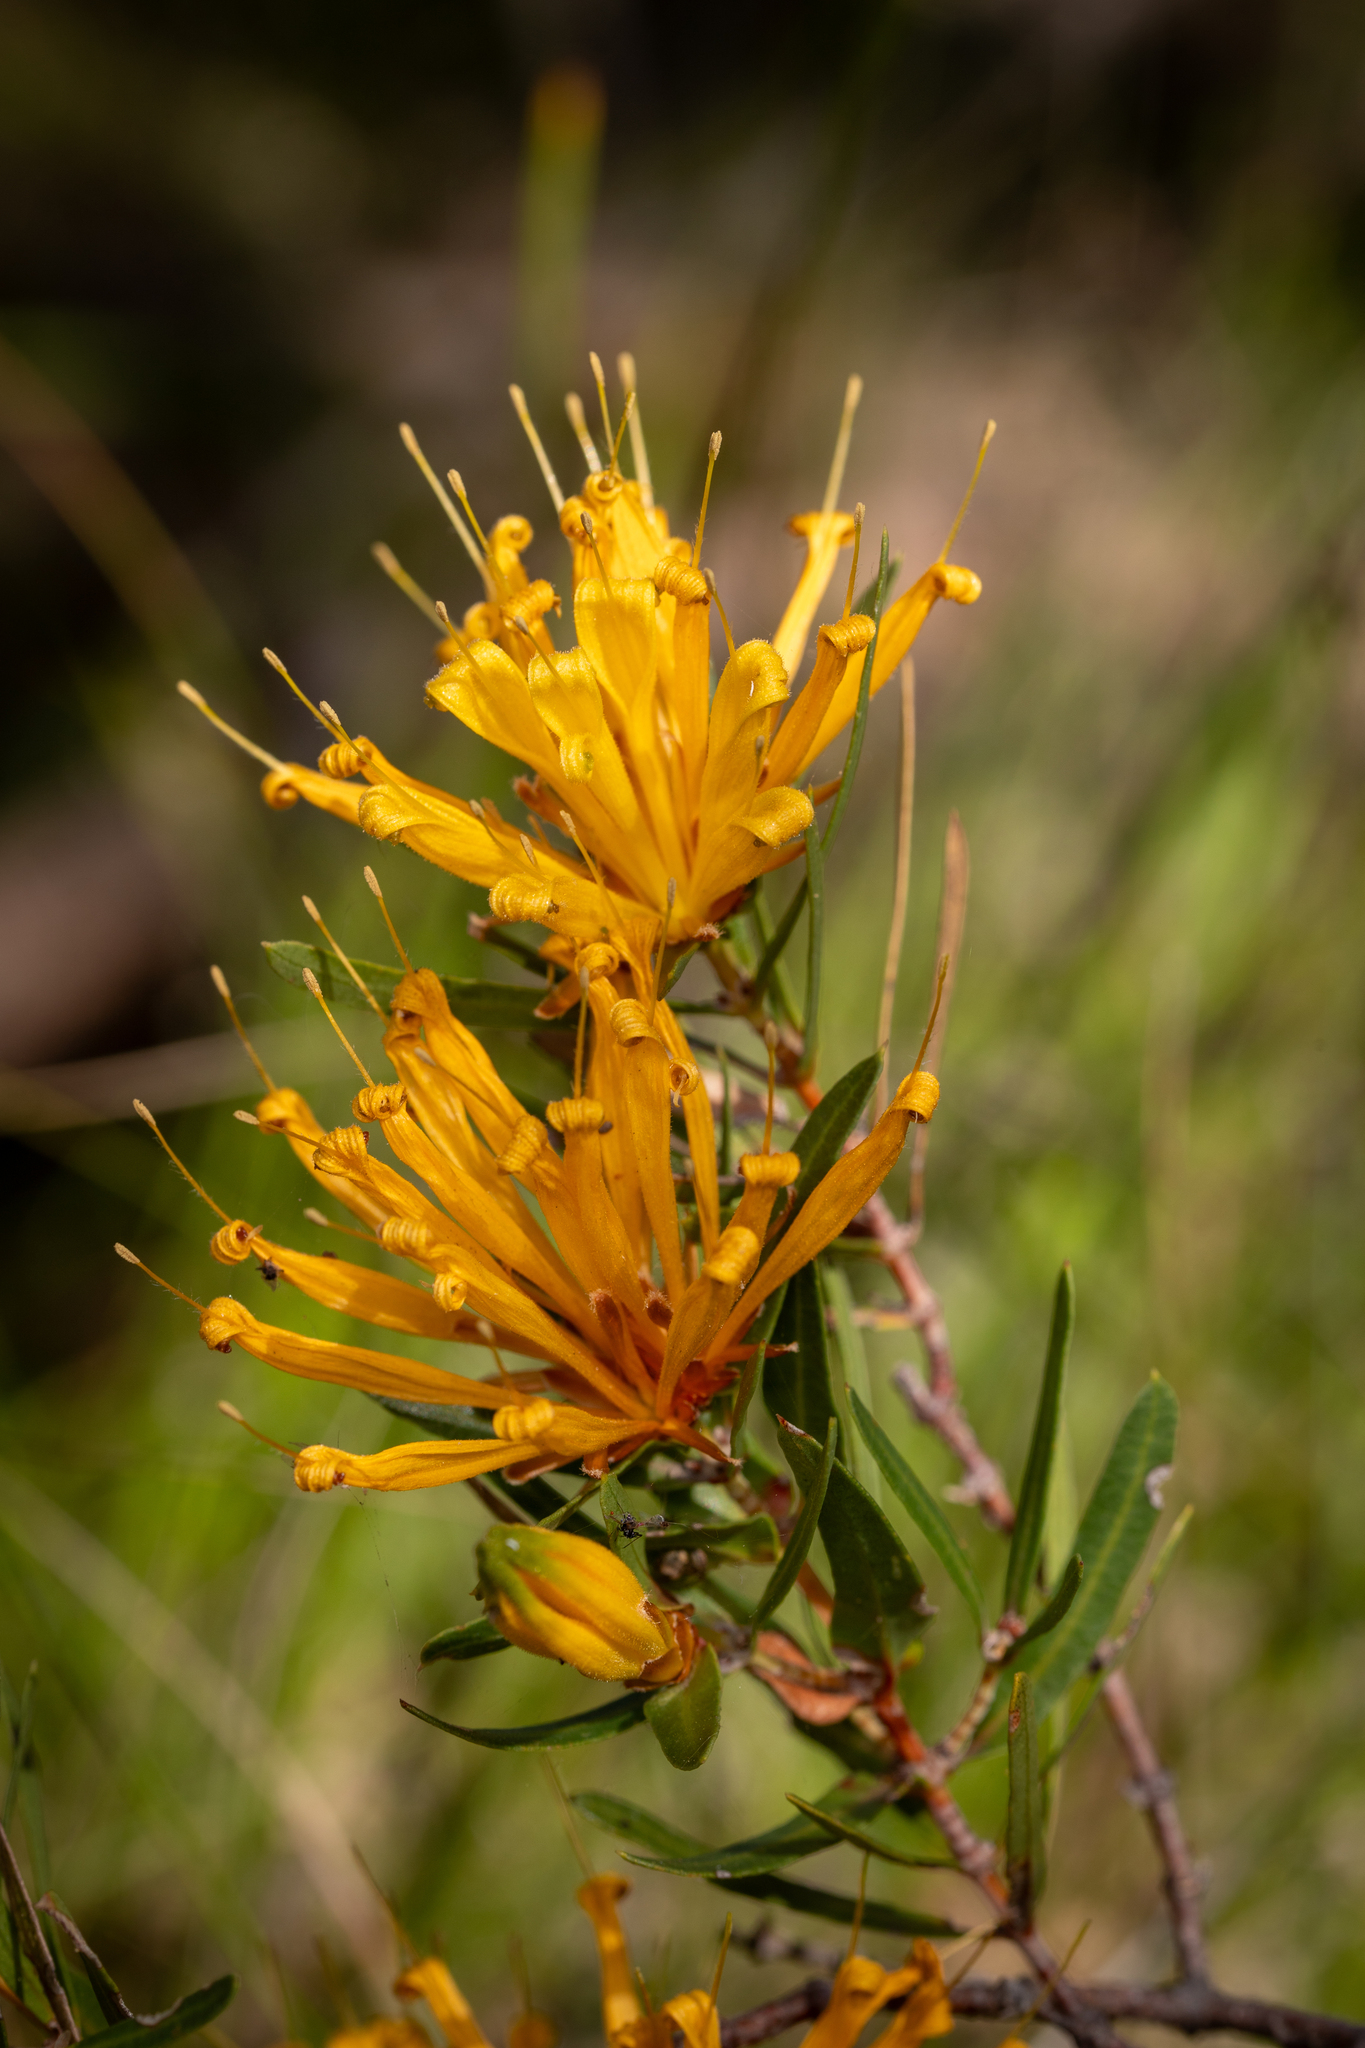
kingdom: Plantae
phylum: Tracheophyta
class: Magnoliopsida
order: Proteales
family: Proteaceae
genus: Lambertia
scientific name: Lambertia multiflora
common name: Many-flowered honeysuckle
